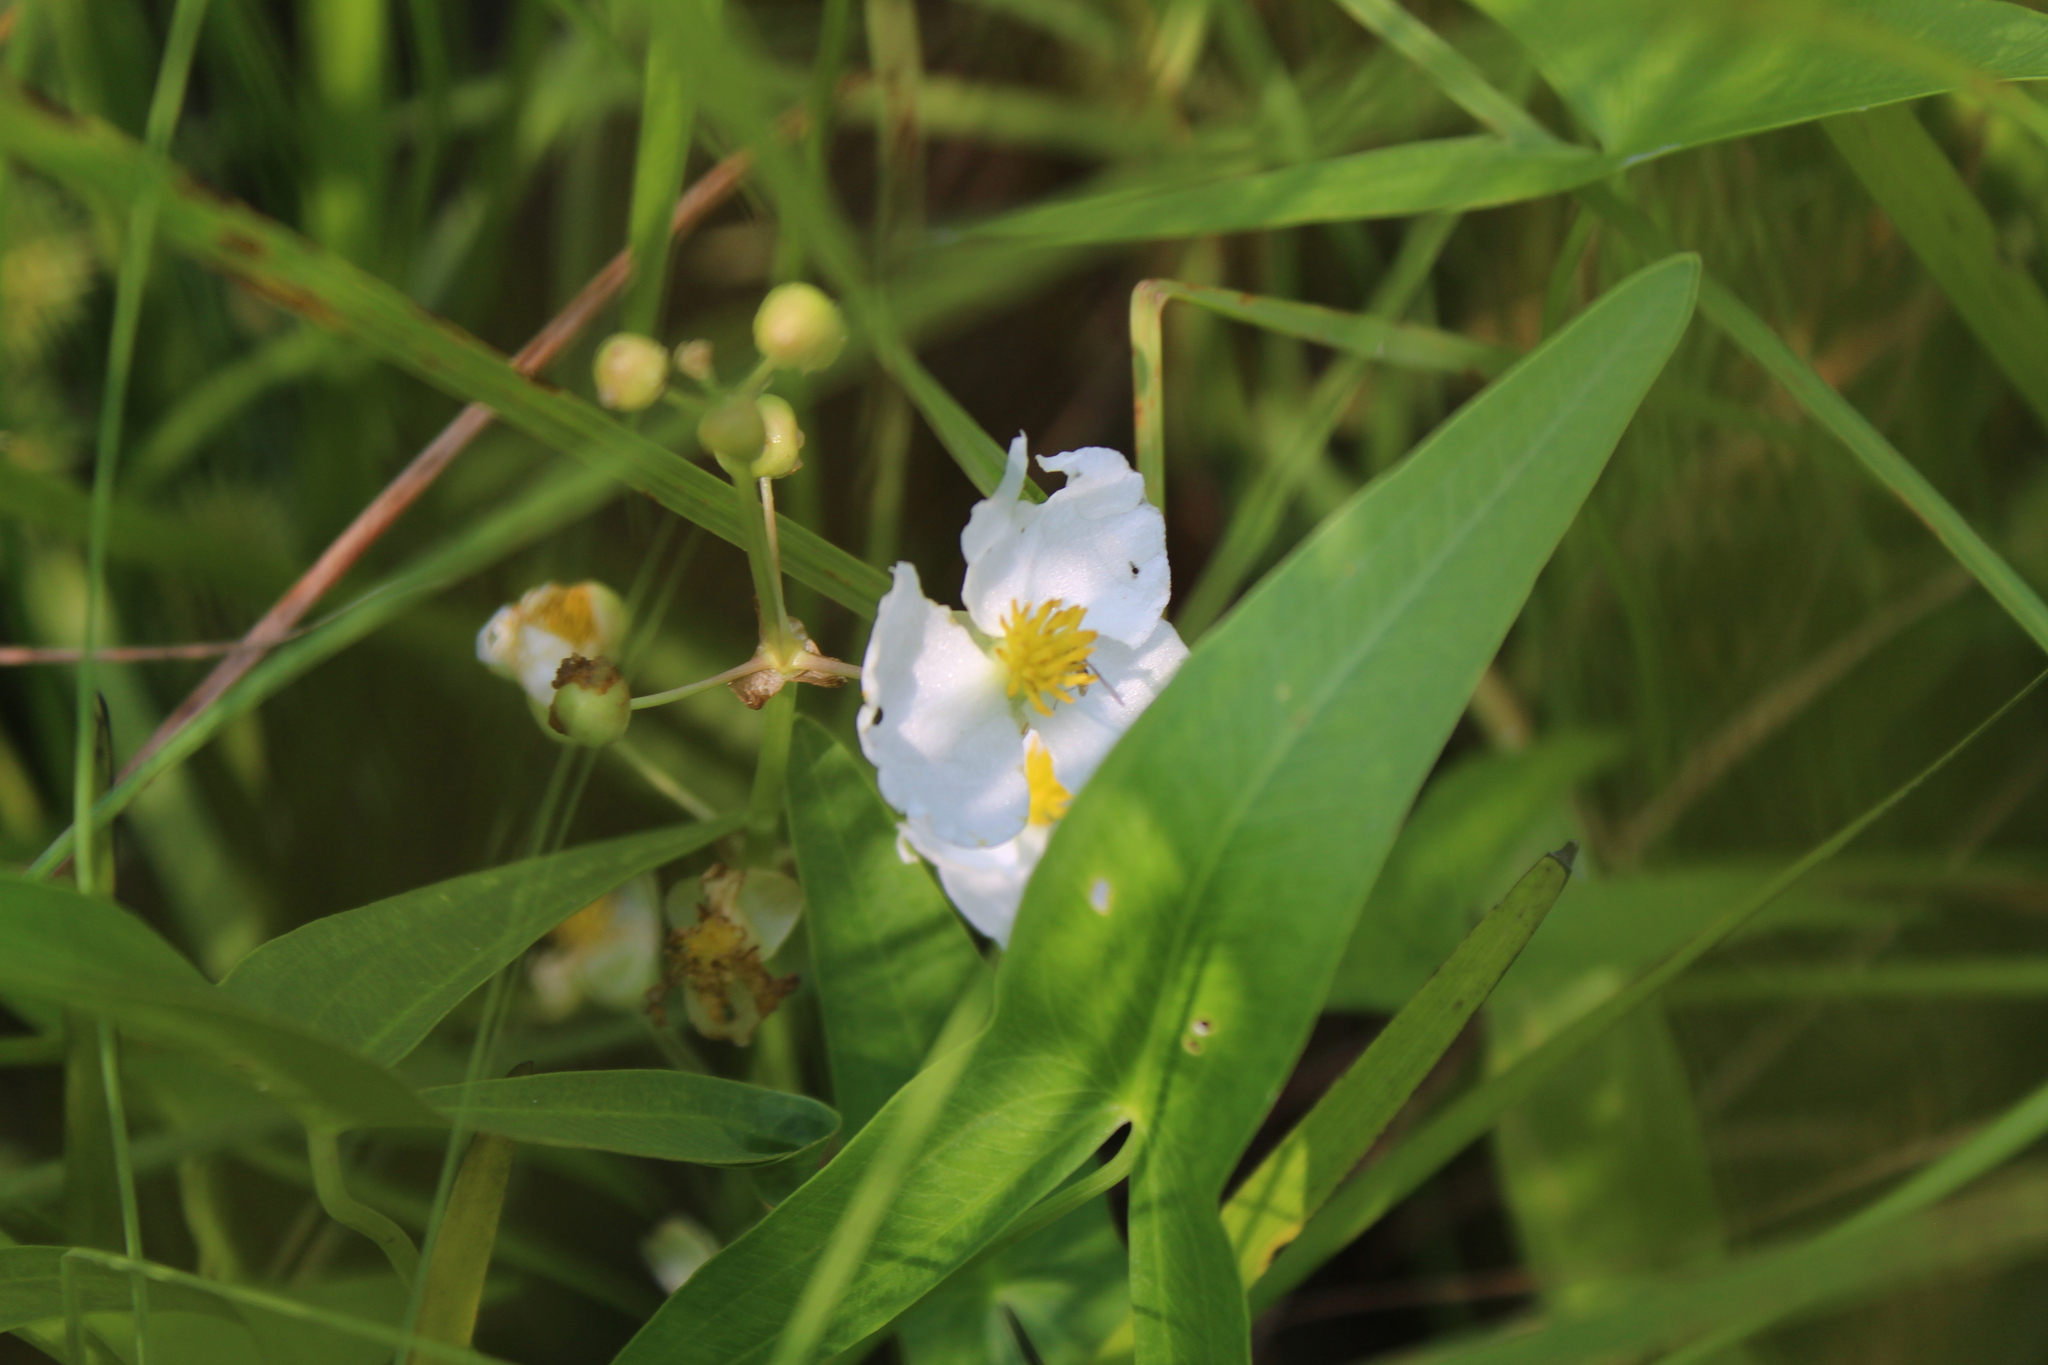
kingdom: Plantae
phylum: Tracheophyta
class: Liliopsida
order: Alismatales
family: Alismataceae
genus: Sagittaria
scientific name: Sagittaria latifolia
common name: Duck-potato
